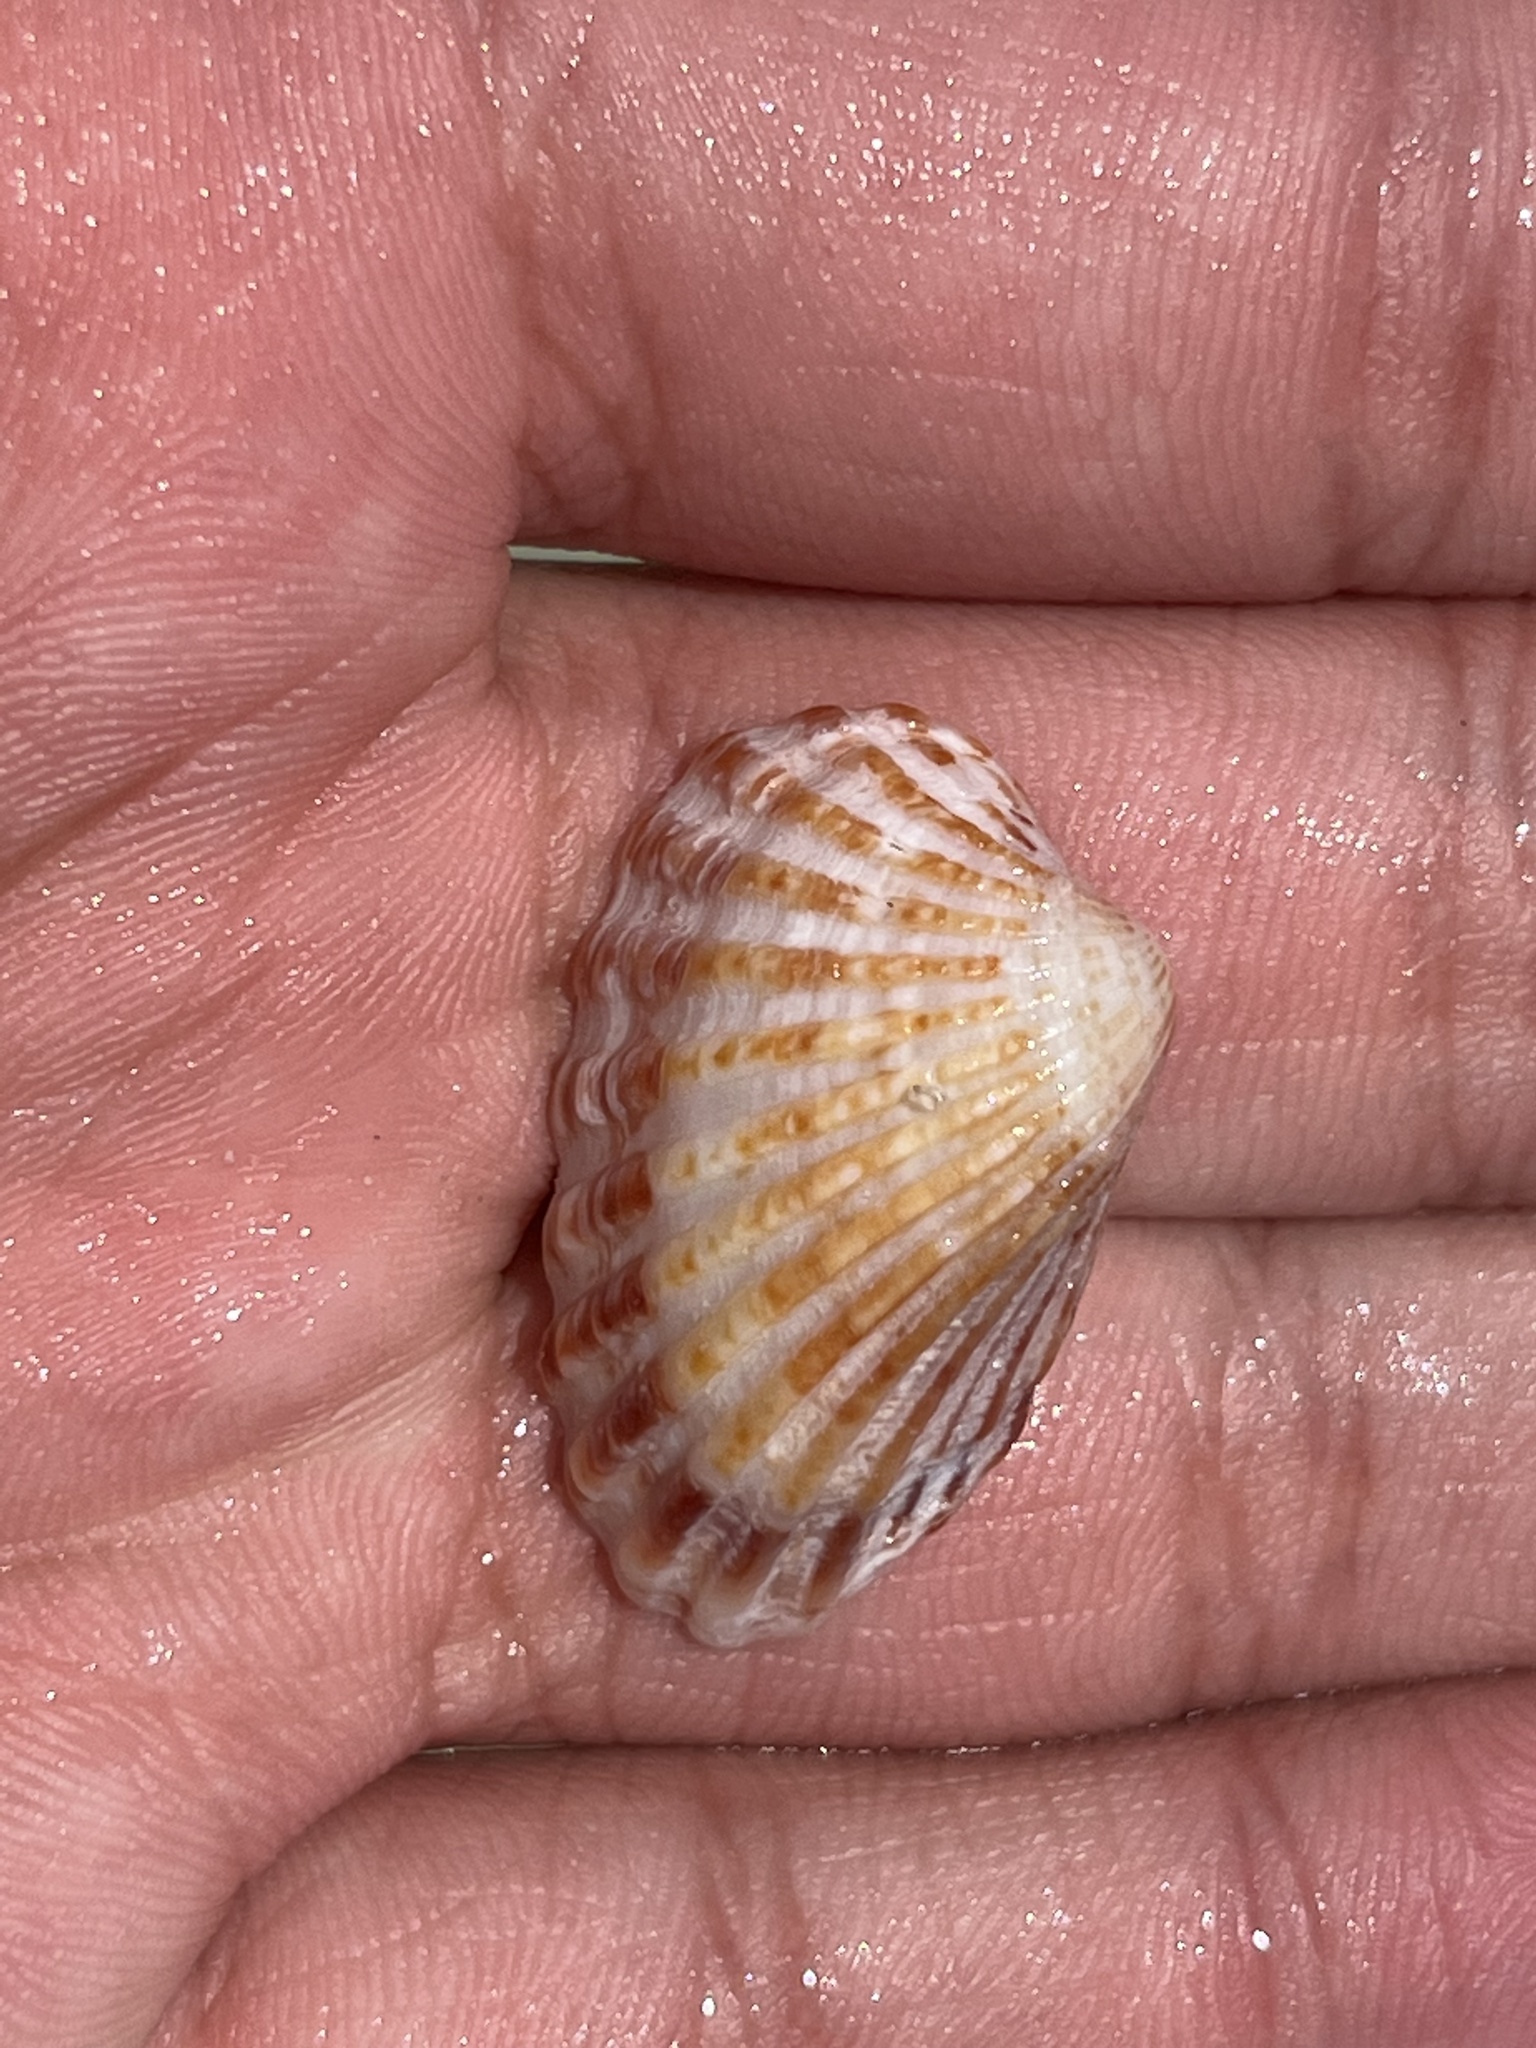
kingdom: Animalia
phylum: Mollusca
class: Bivalvia
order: Carditida
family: Carditidae
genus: Cardites
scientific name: Cardites floridanus
